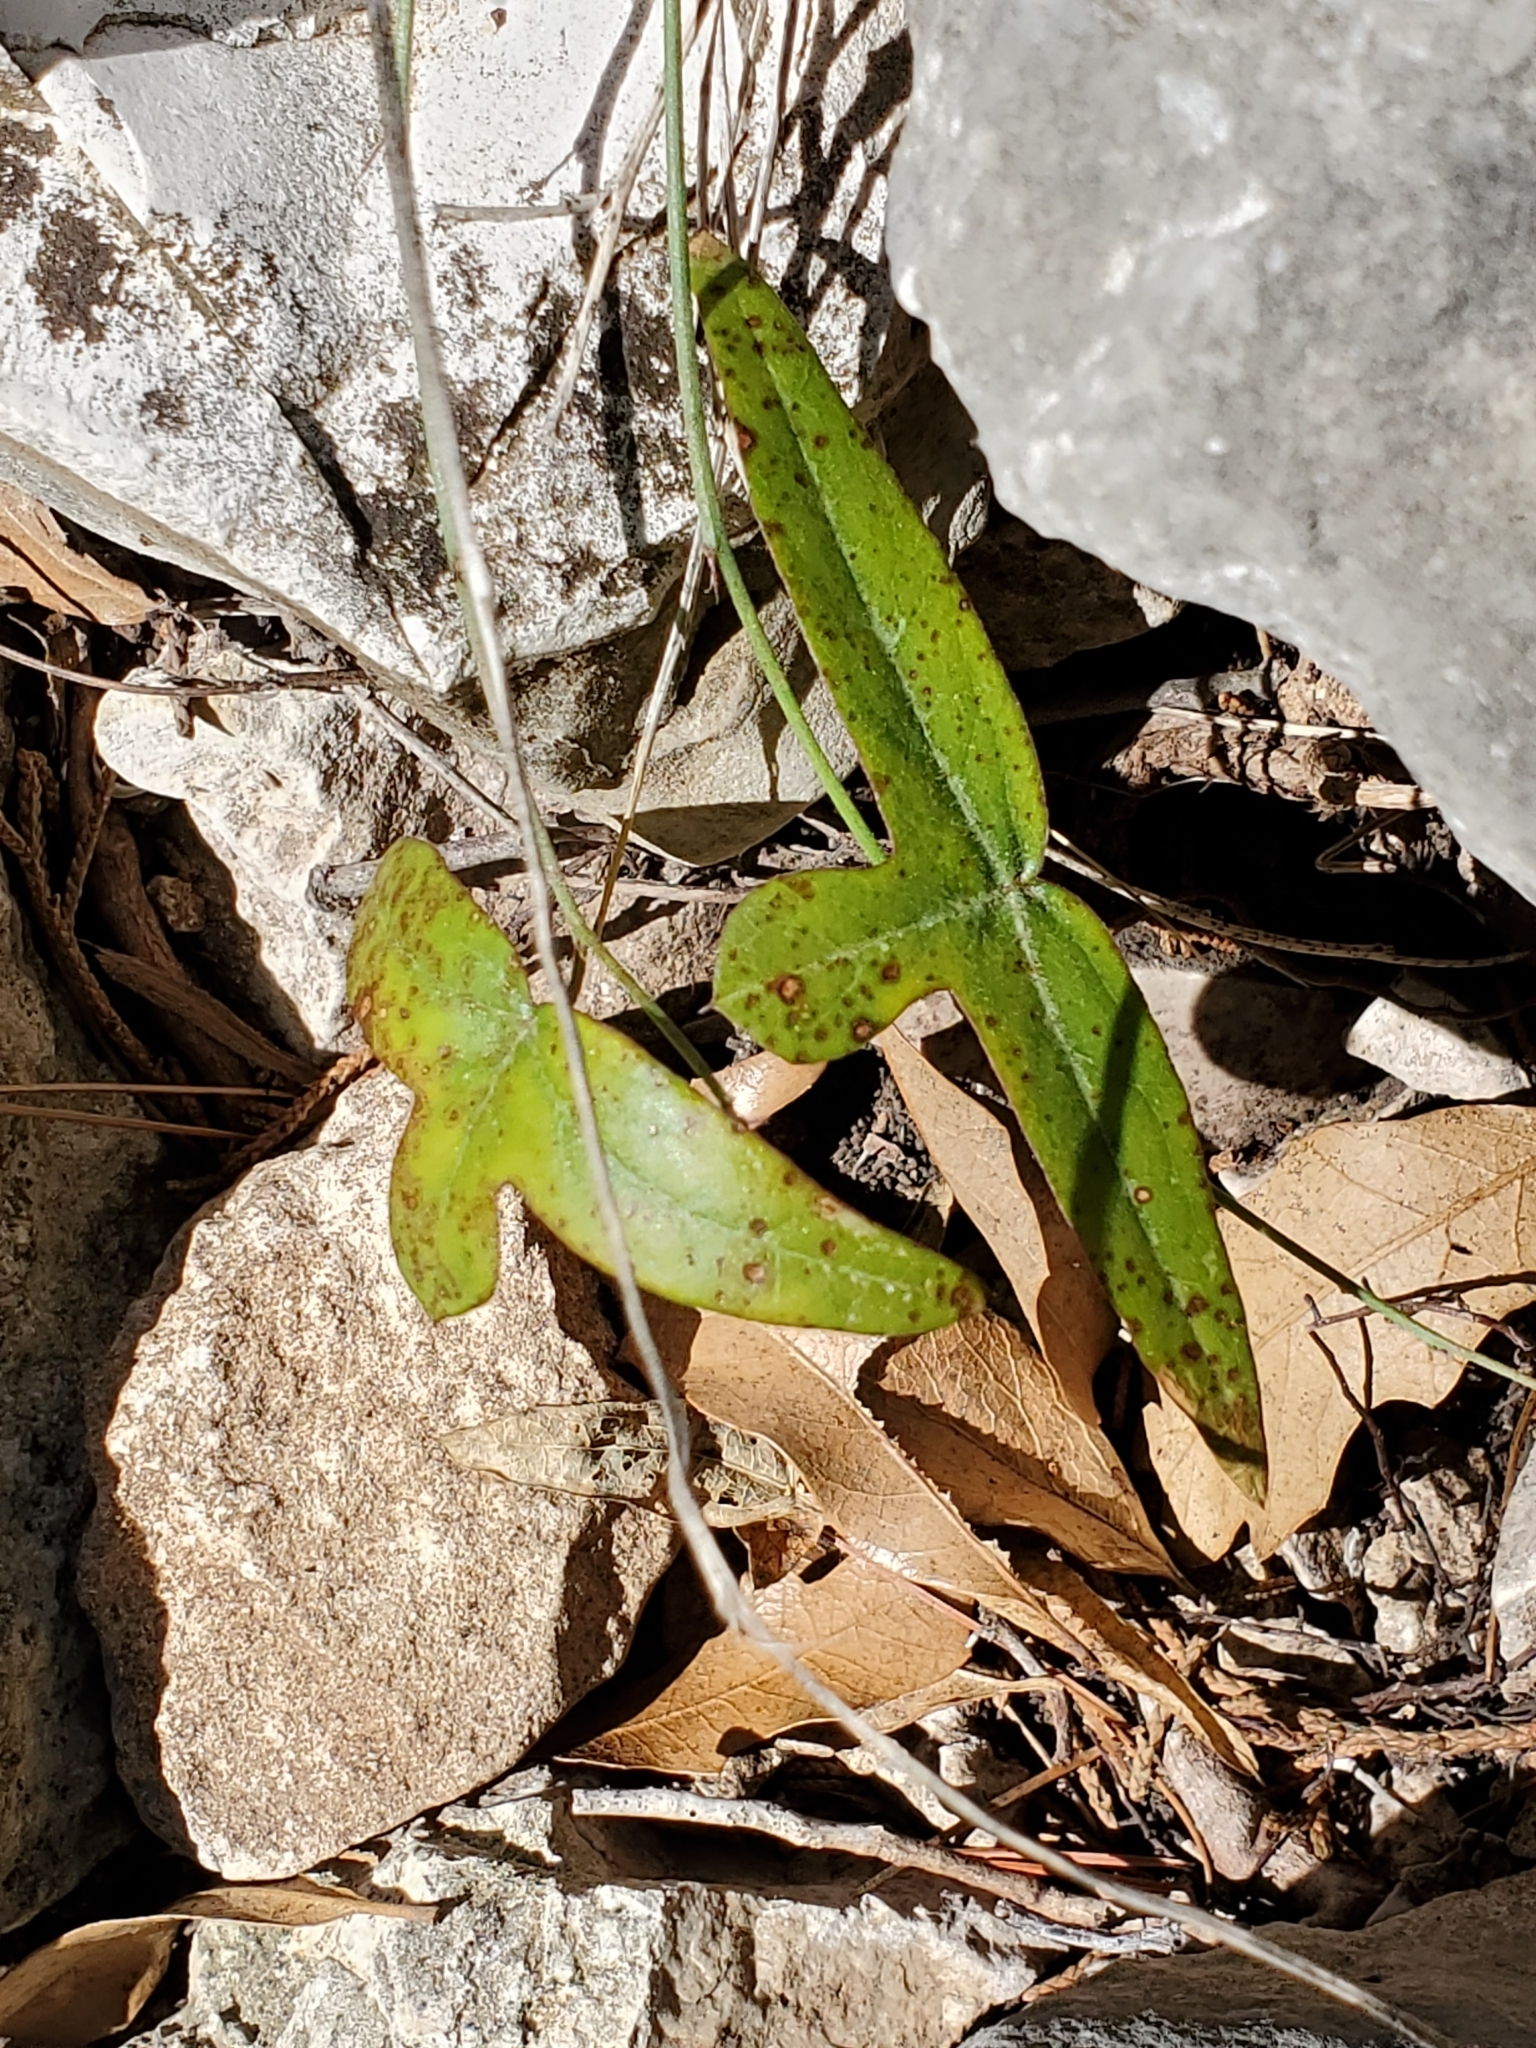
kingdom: Plantae
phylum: Tracheophyta
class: Magnoliopsida
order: Malpighiales
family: Passifloraceae
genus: Passiflora
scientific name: Passiflora tenuiloba
